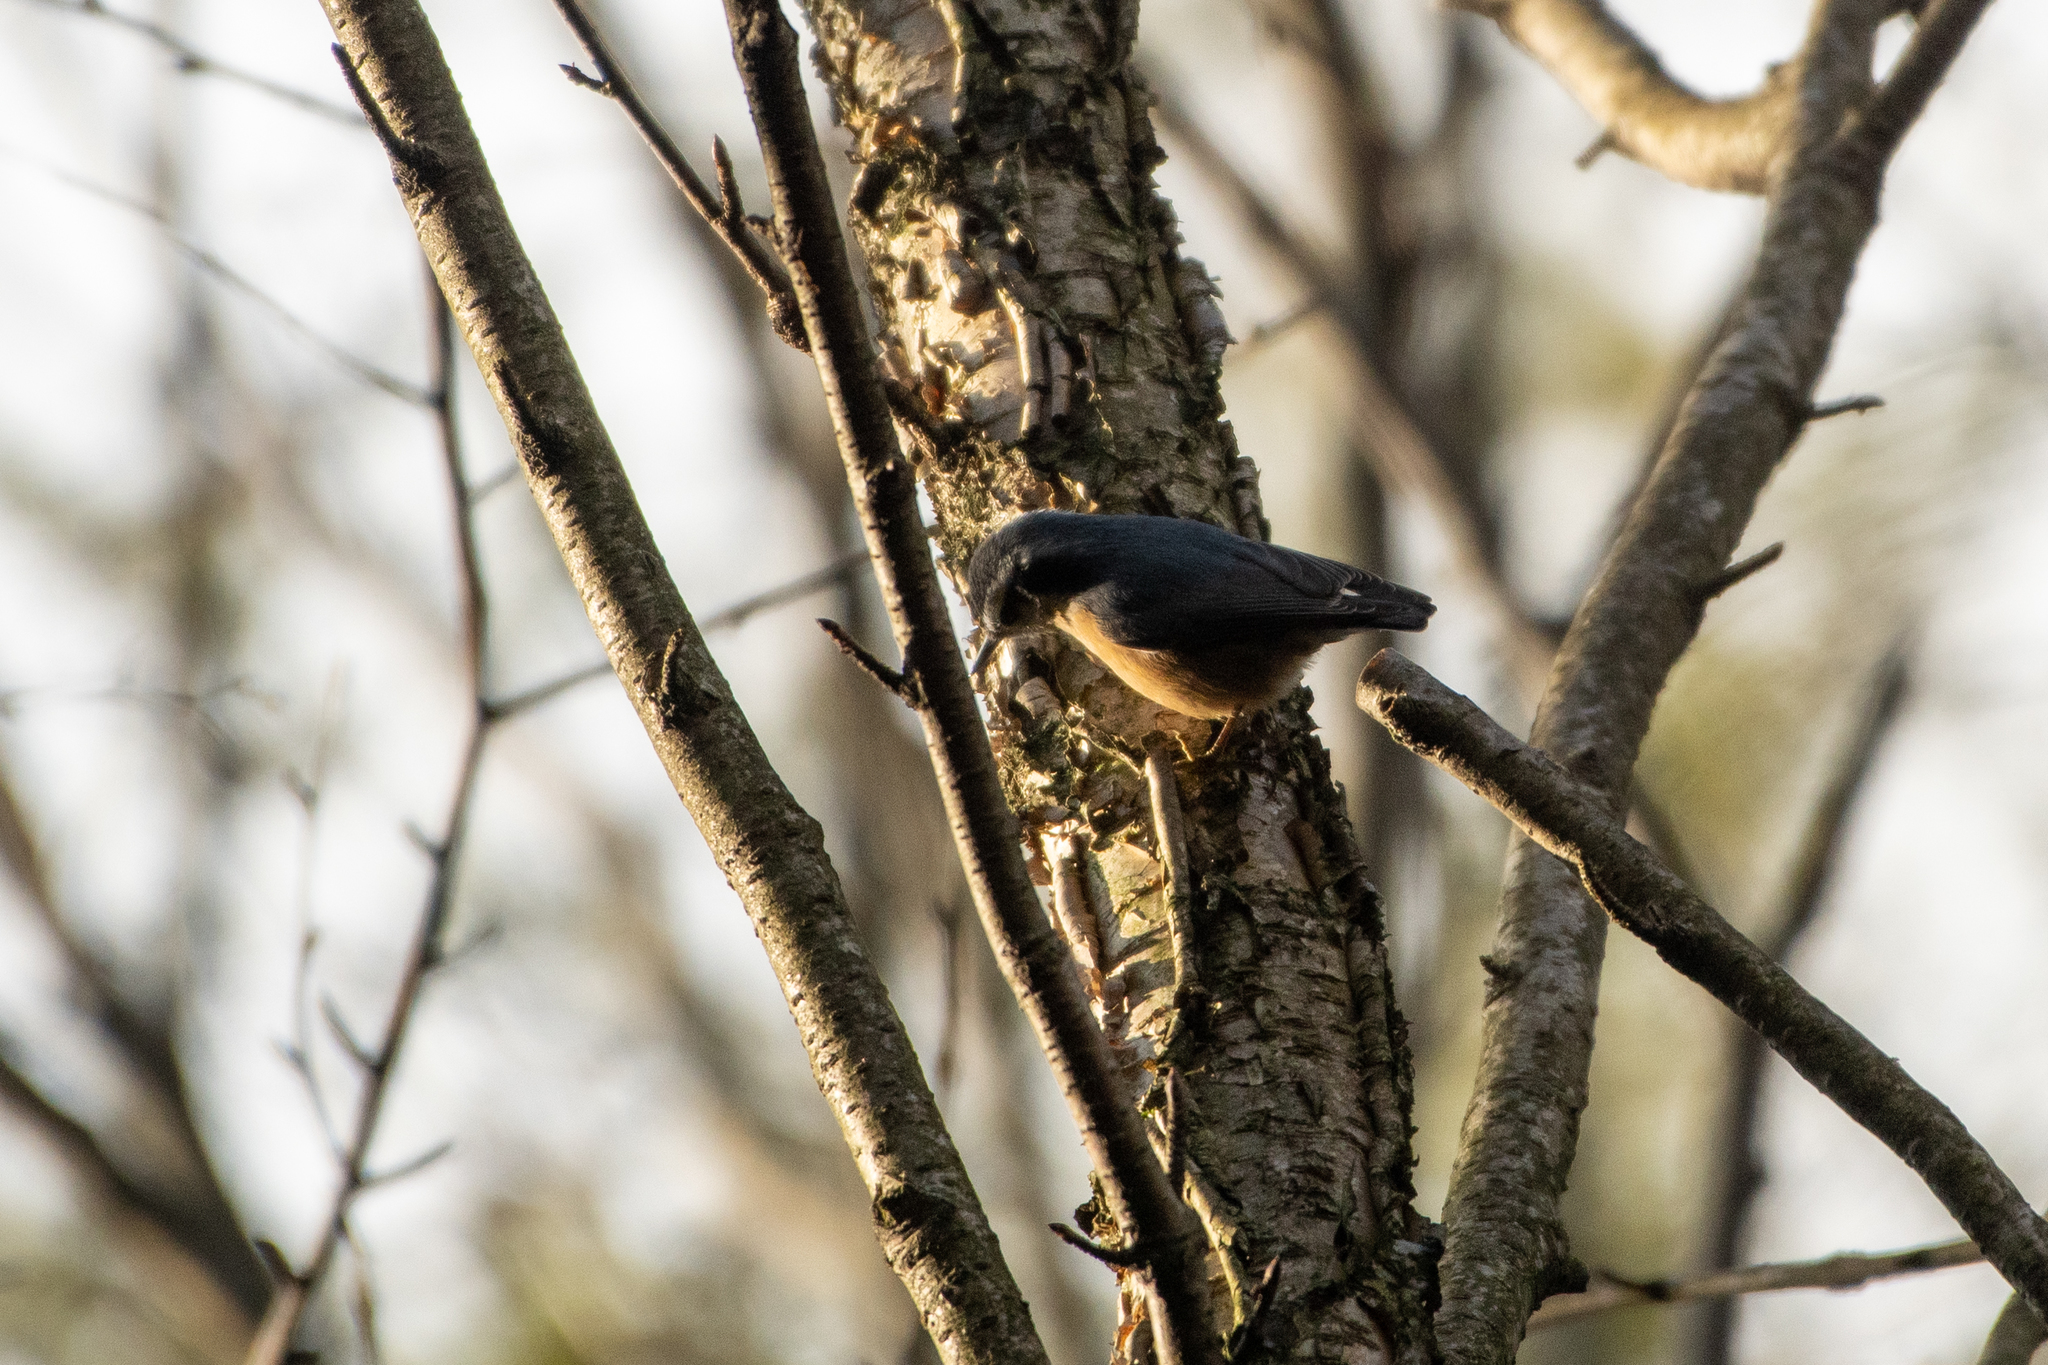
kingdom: Animalia
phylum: Chordata
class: Aves
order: Passeriformes
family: Sittidae
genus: Sitta
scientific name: Sitta canadensis
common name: Red-breasted nuthatch
